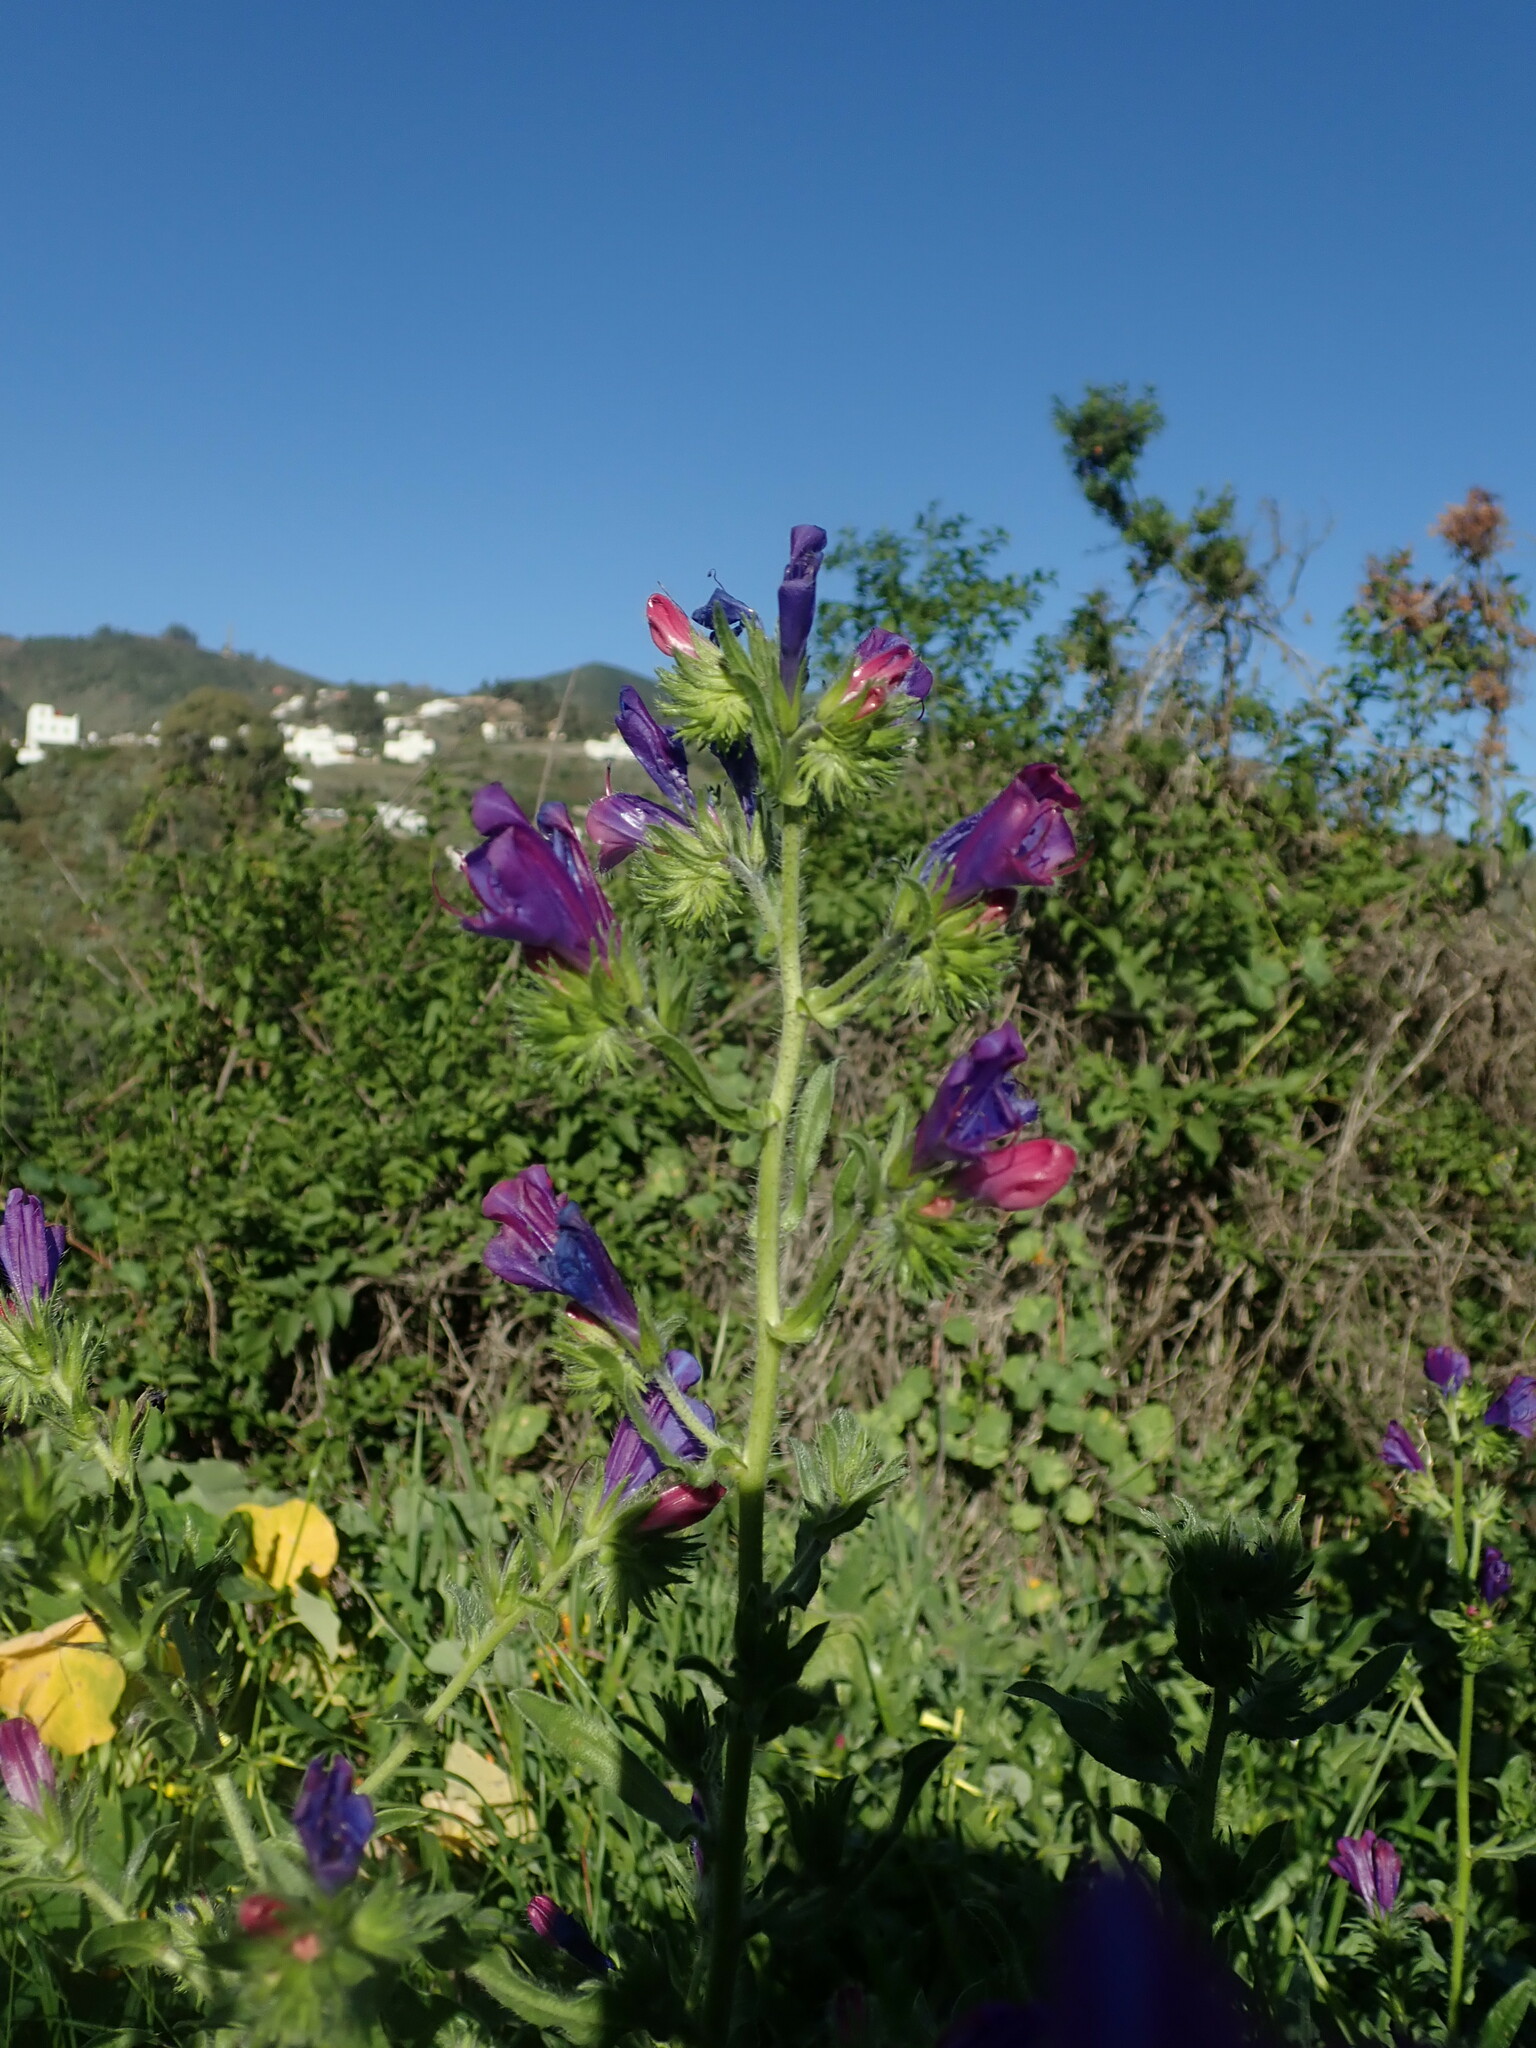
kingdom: Plantae
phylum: Tracheophyta
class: Magnoliopsida
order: Boraginales
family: Boraginaceae
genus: Echium
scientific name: Echium plantagineum
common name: Purple viper's-bugloss
